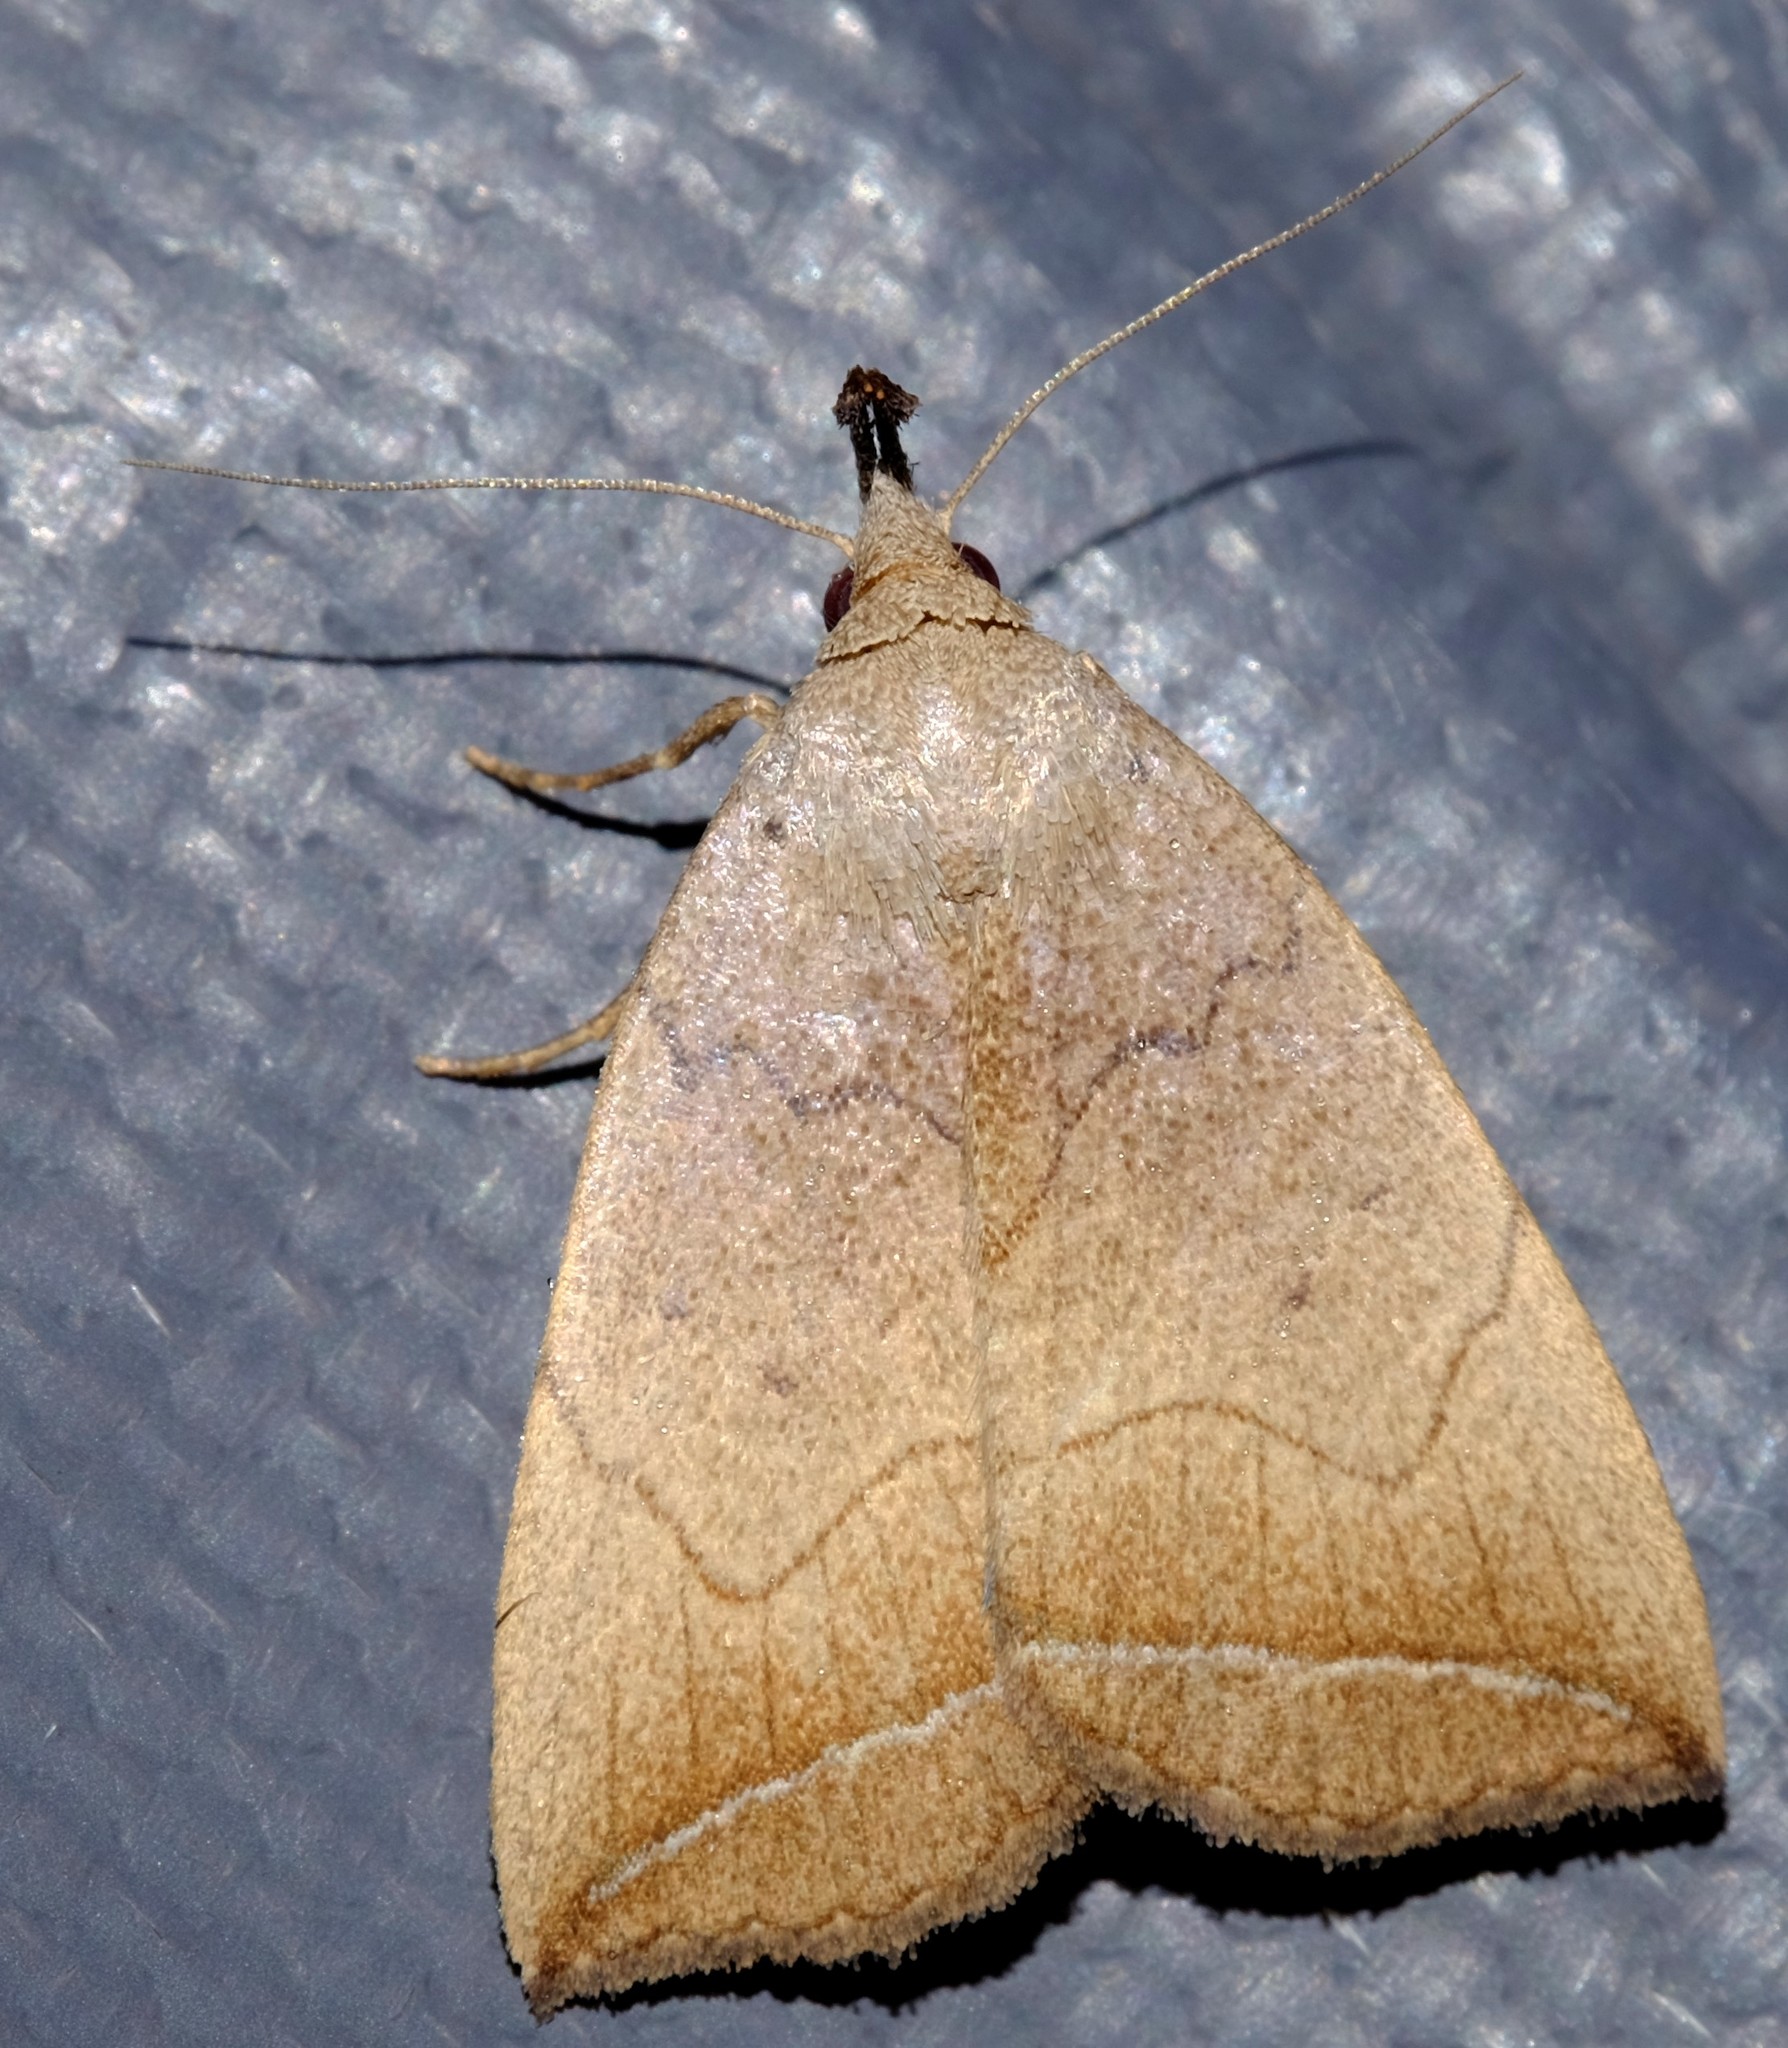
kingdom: Animalia
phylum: Arthropoda
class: Insecta
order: Lepidoptera
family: Erebidae
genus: Simplicia
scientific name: Simplicia armatalis
